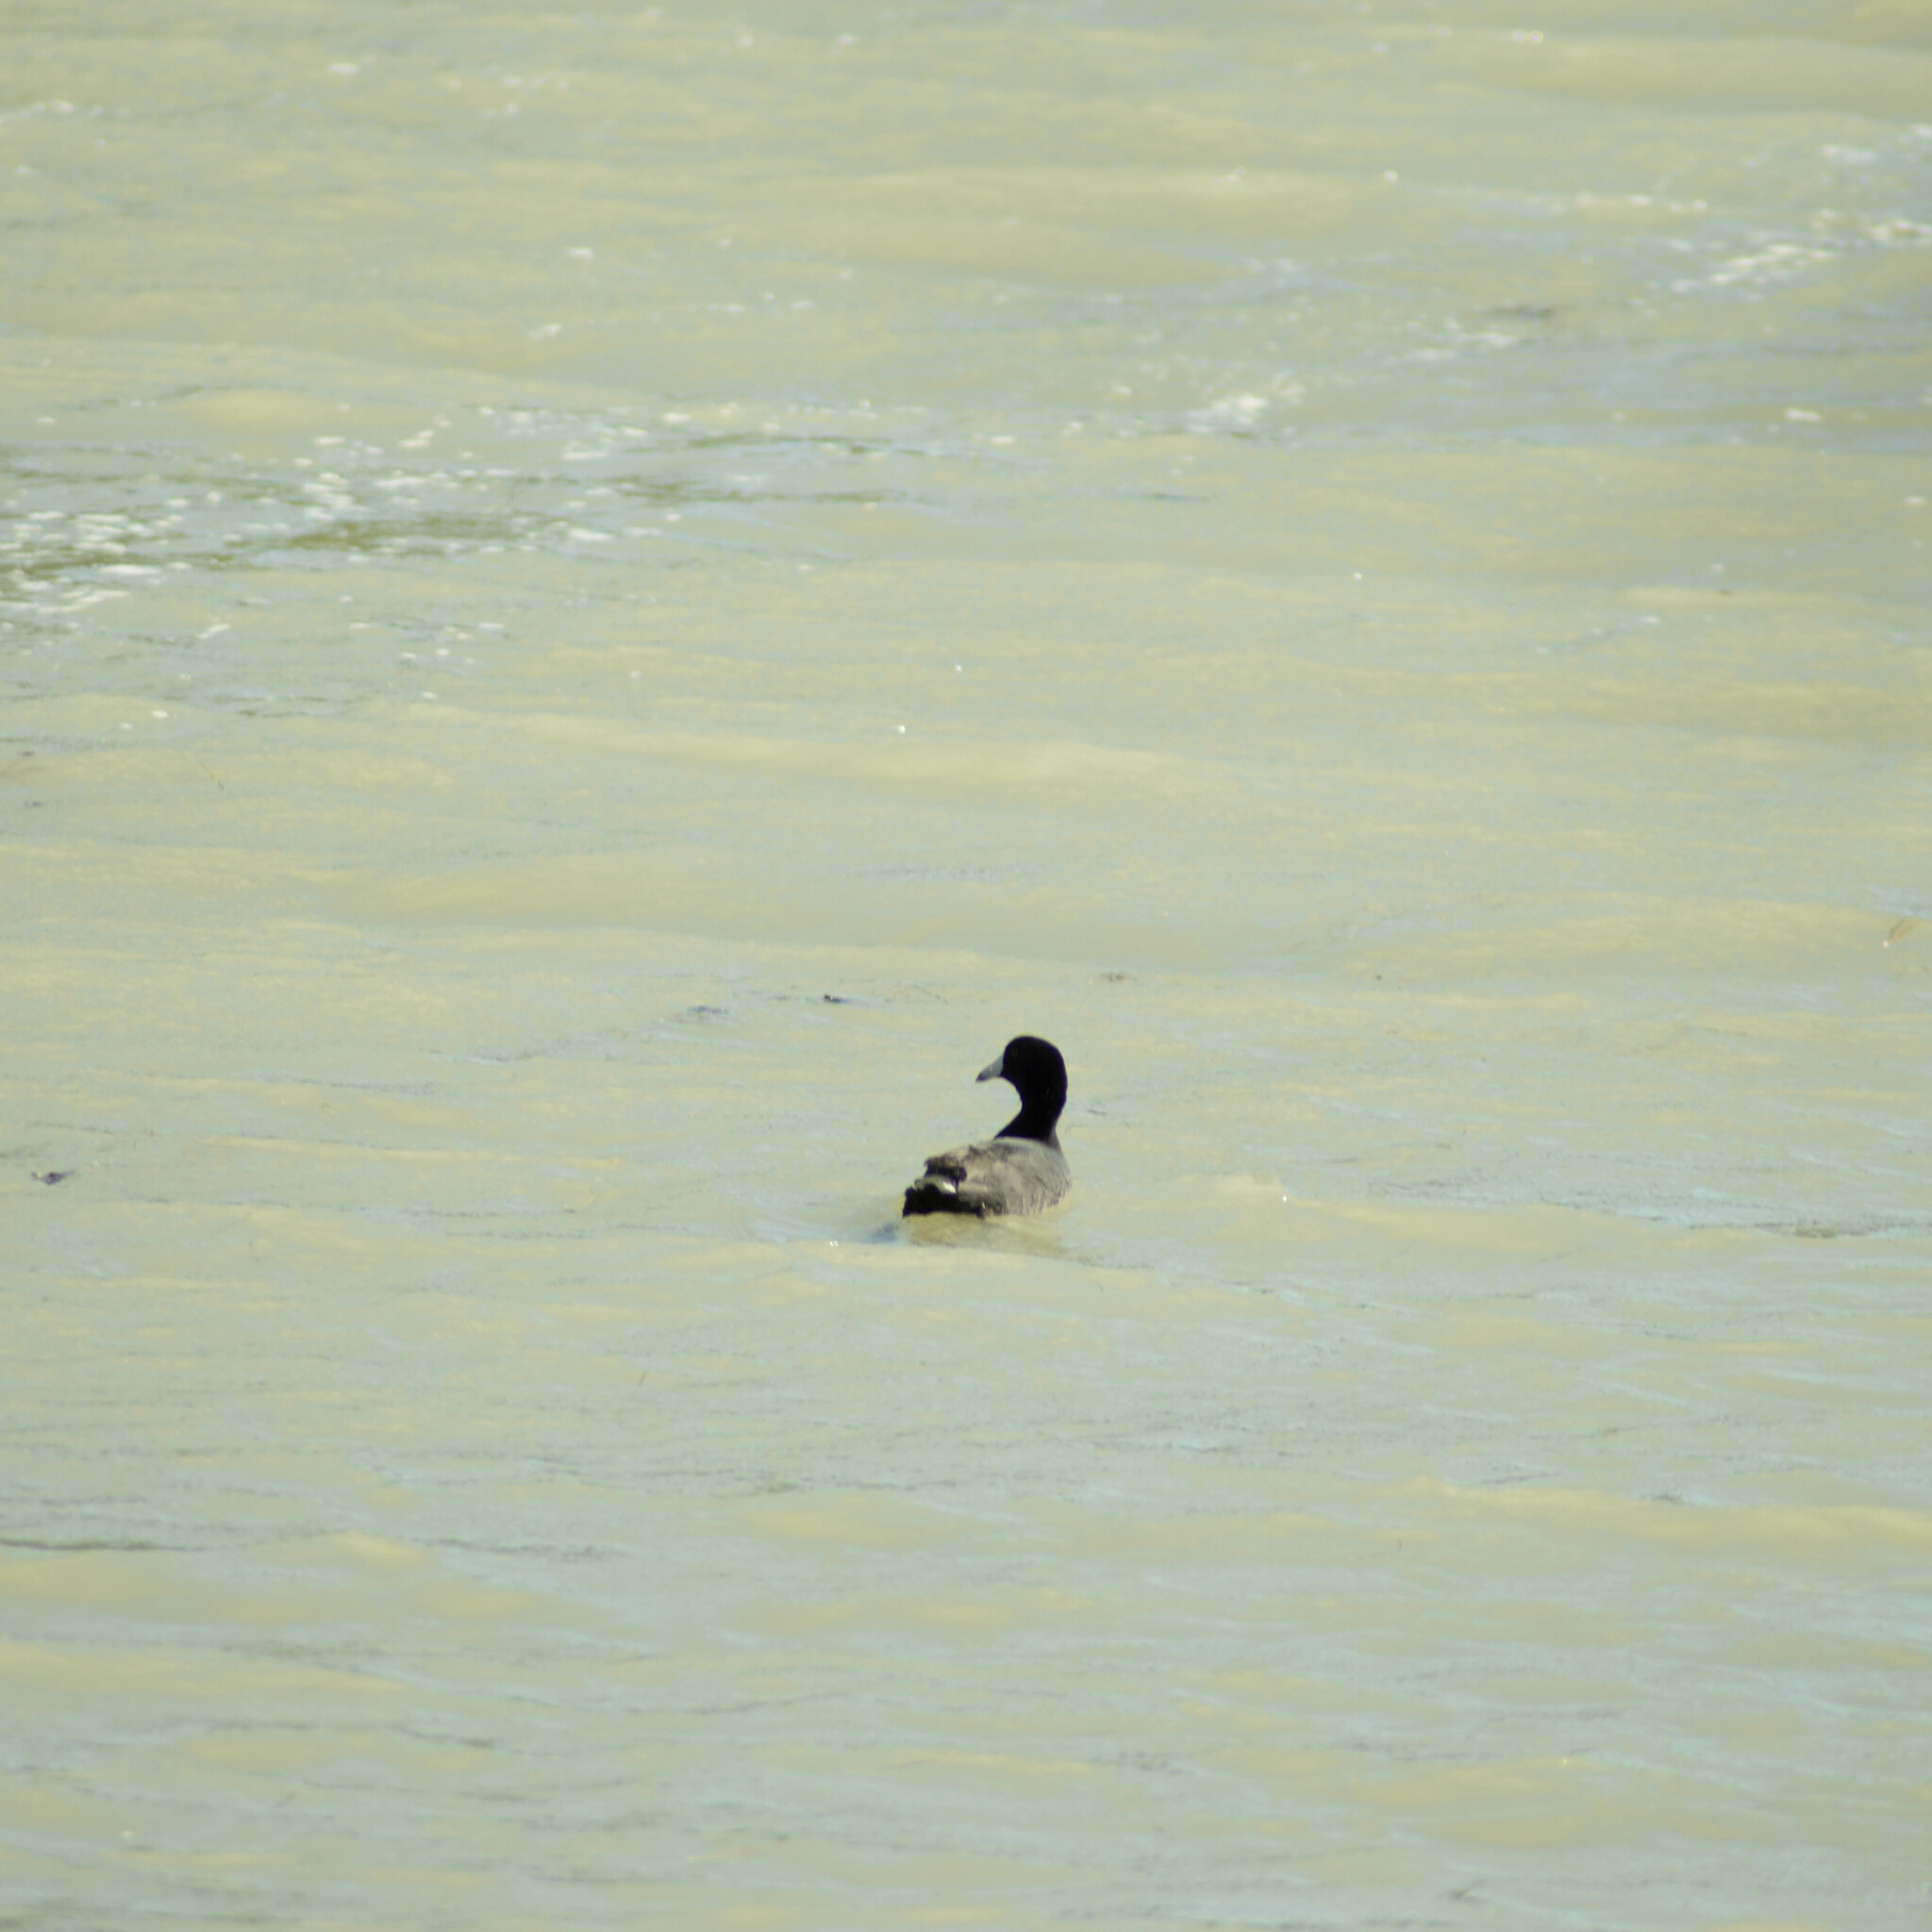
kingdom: Animalia
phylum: Chordata
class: Aves
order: Gruiformes
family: Rallidae
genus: Fulica
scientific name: Fulica americana
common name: American coot
